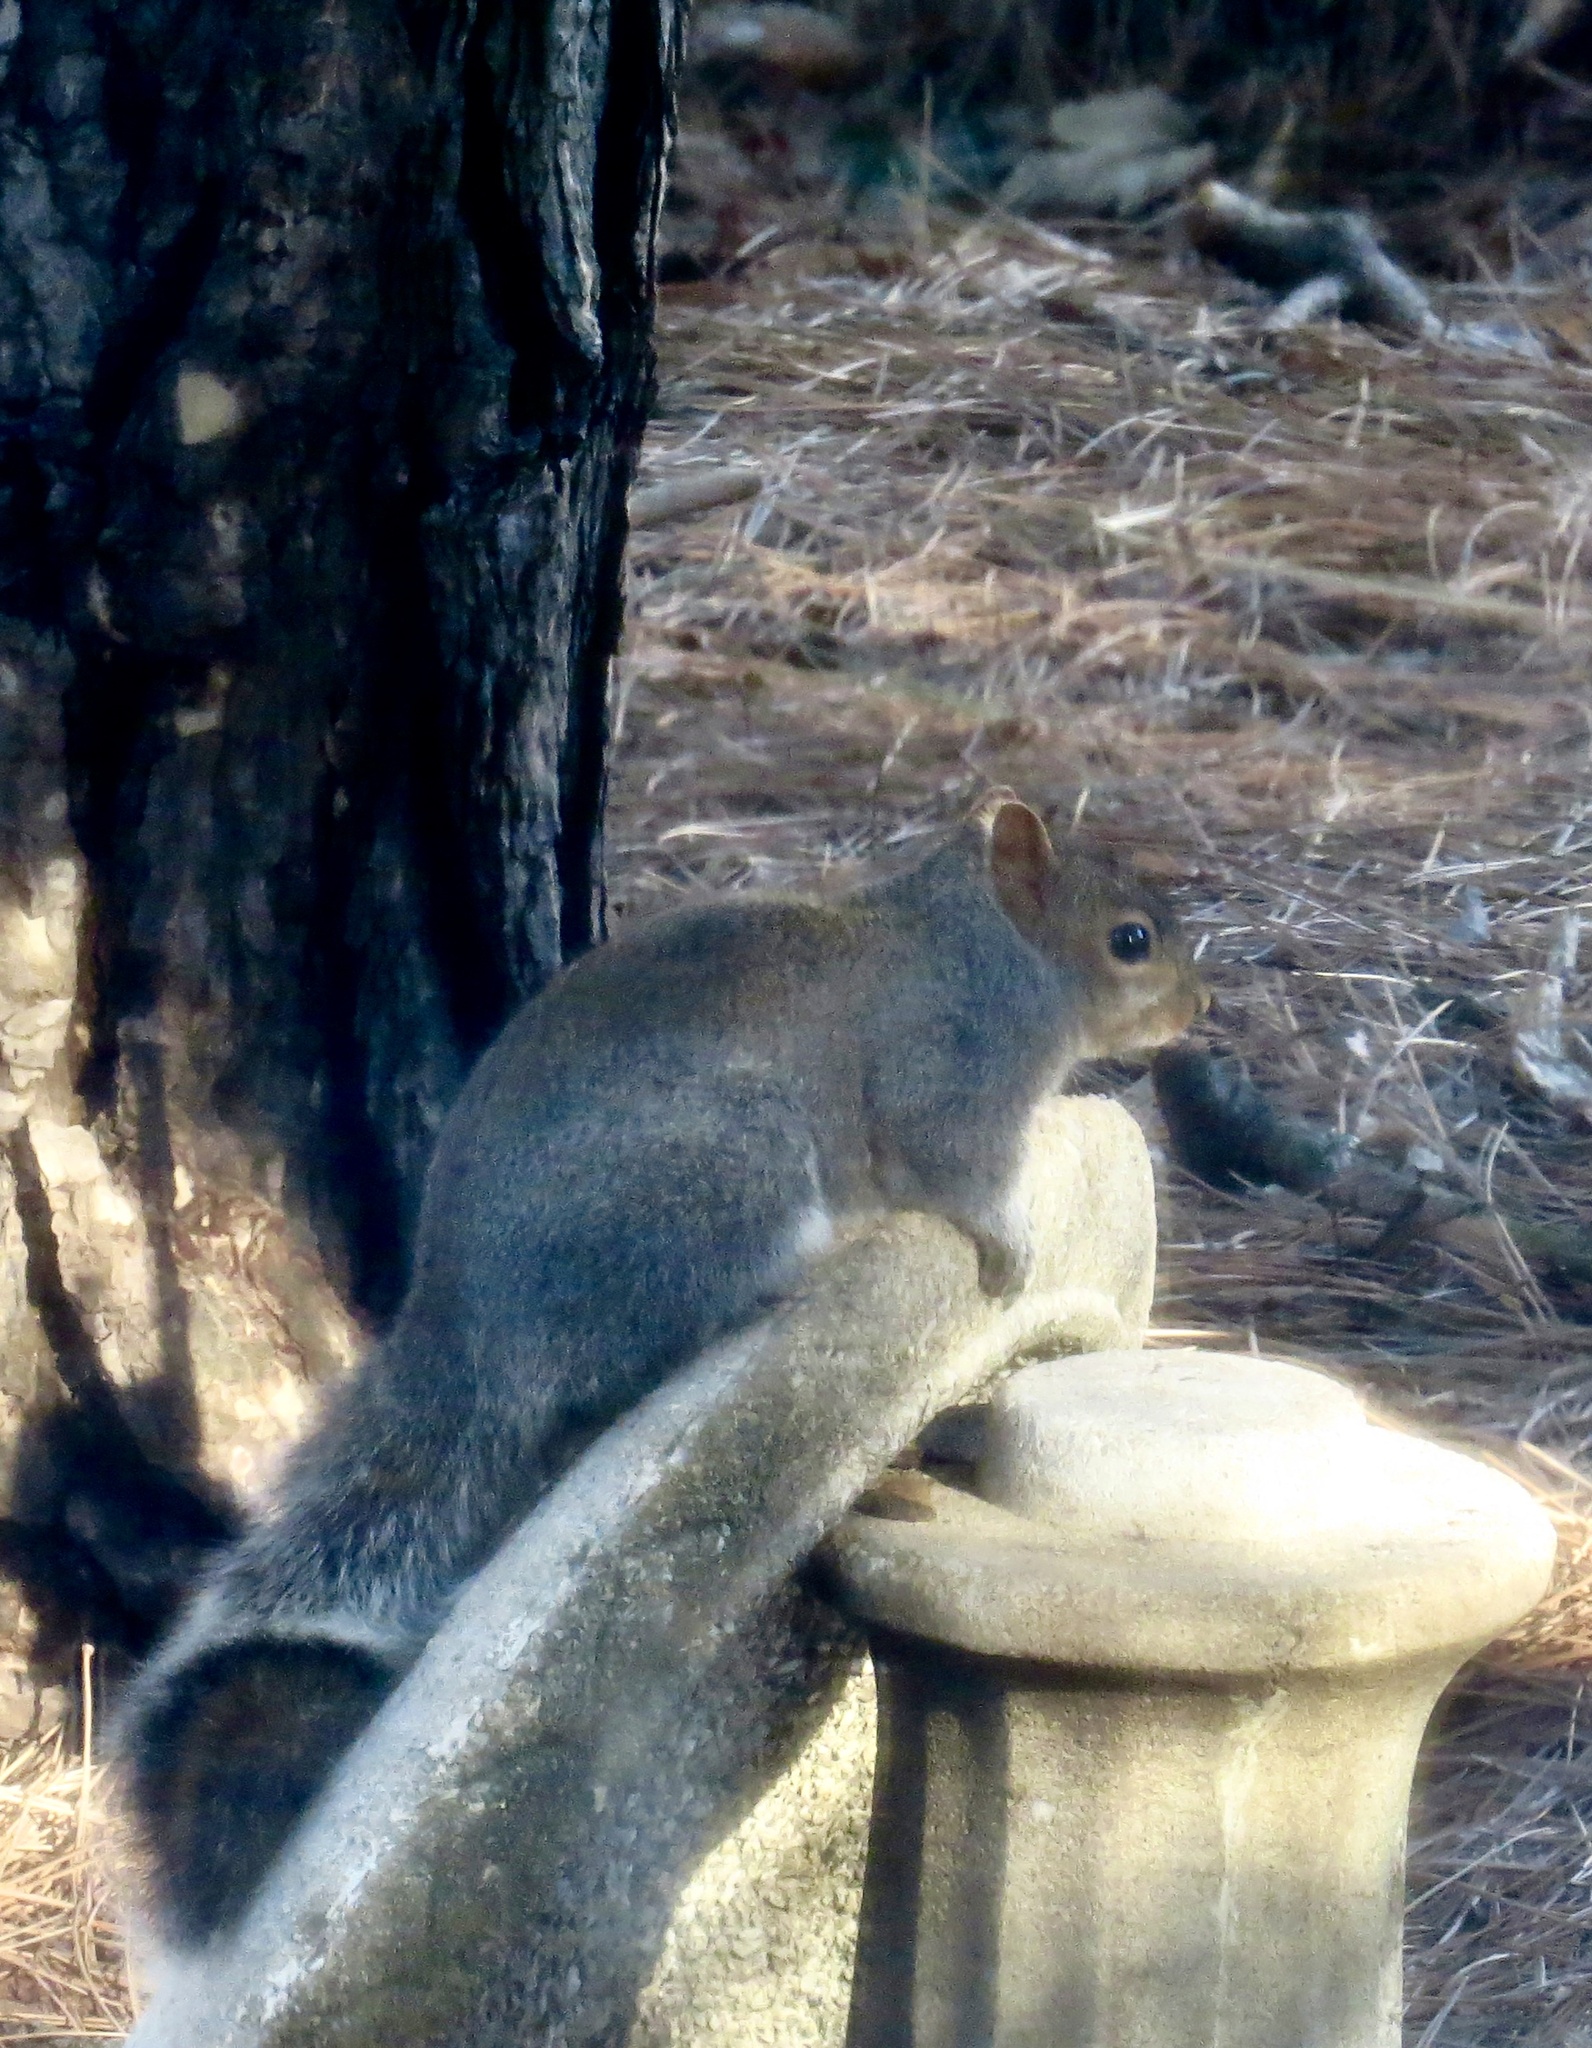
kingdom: Animalia
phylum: Chordata
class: Mammalia
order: Rodentia
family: Sciuridae
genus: Sciurus
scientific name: Sciurus carolinensis
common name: Eastern gray squirrel
